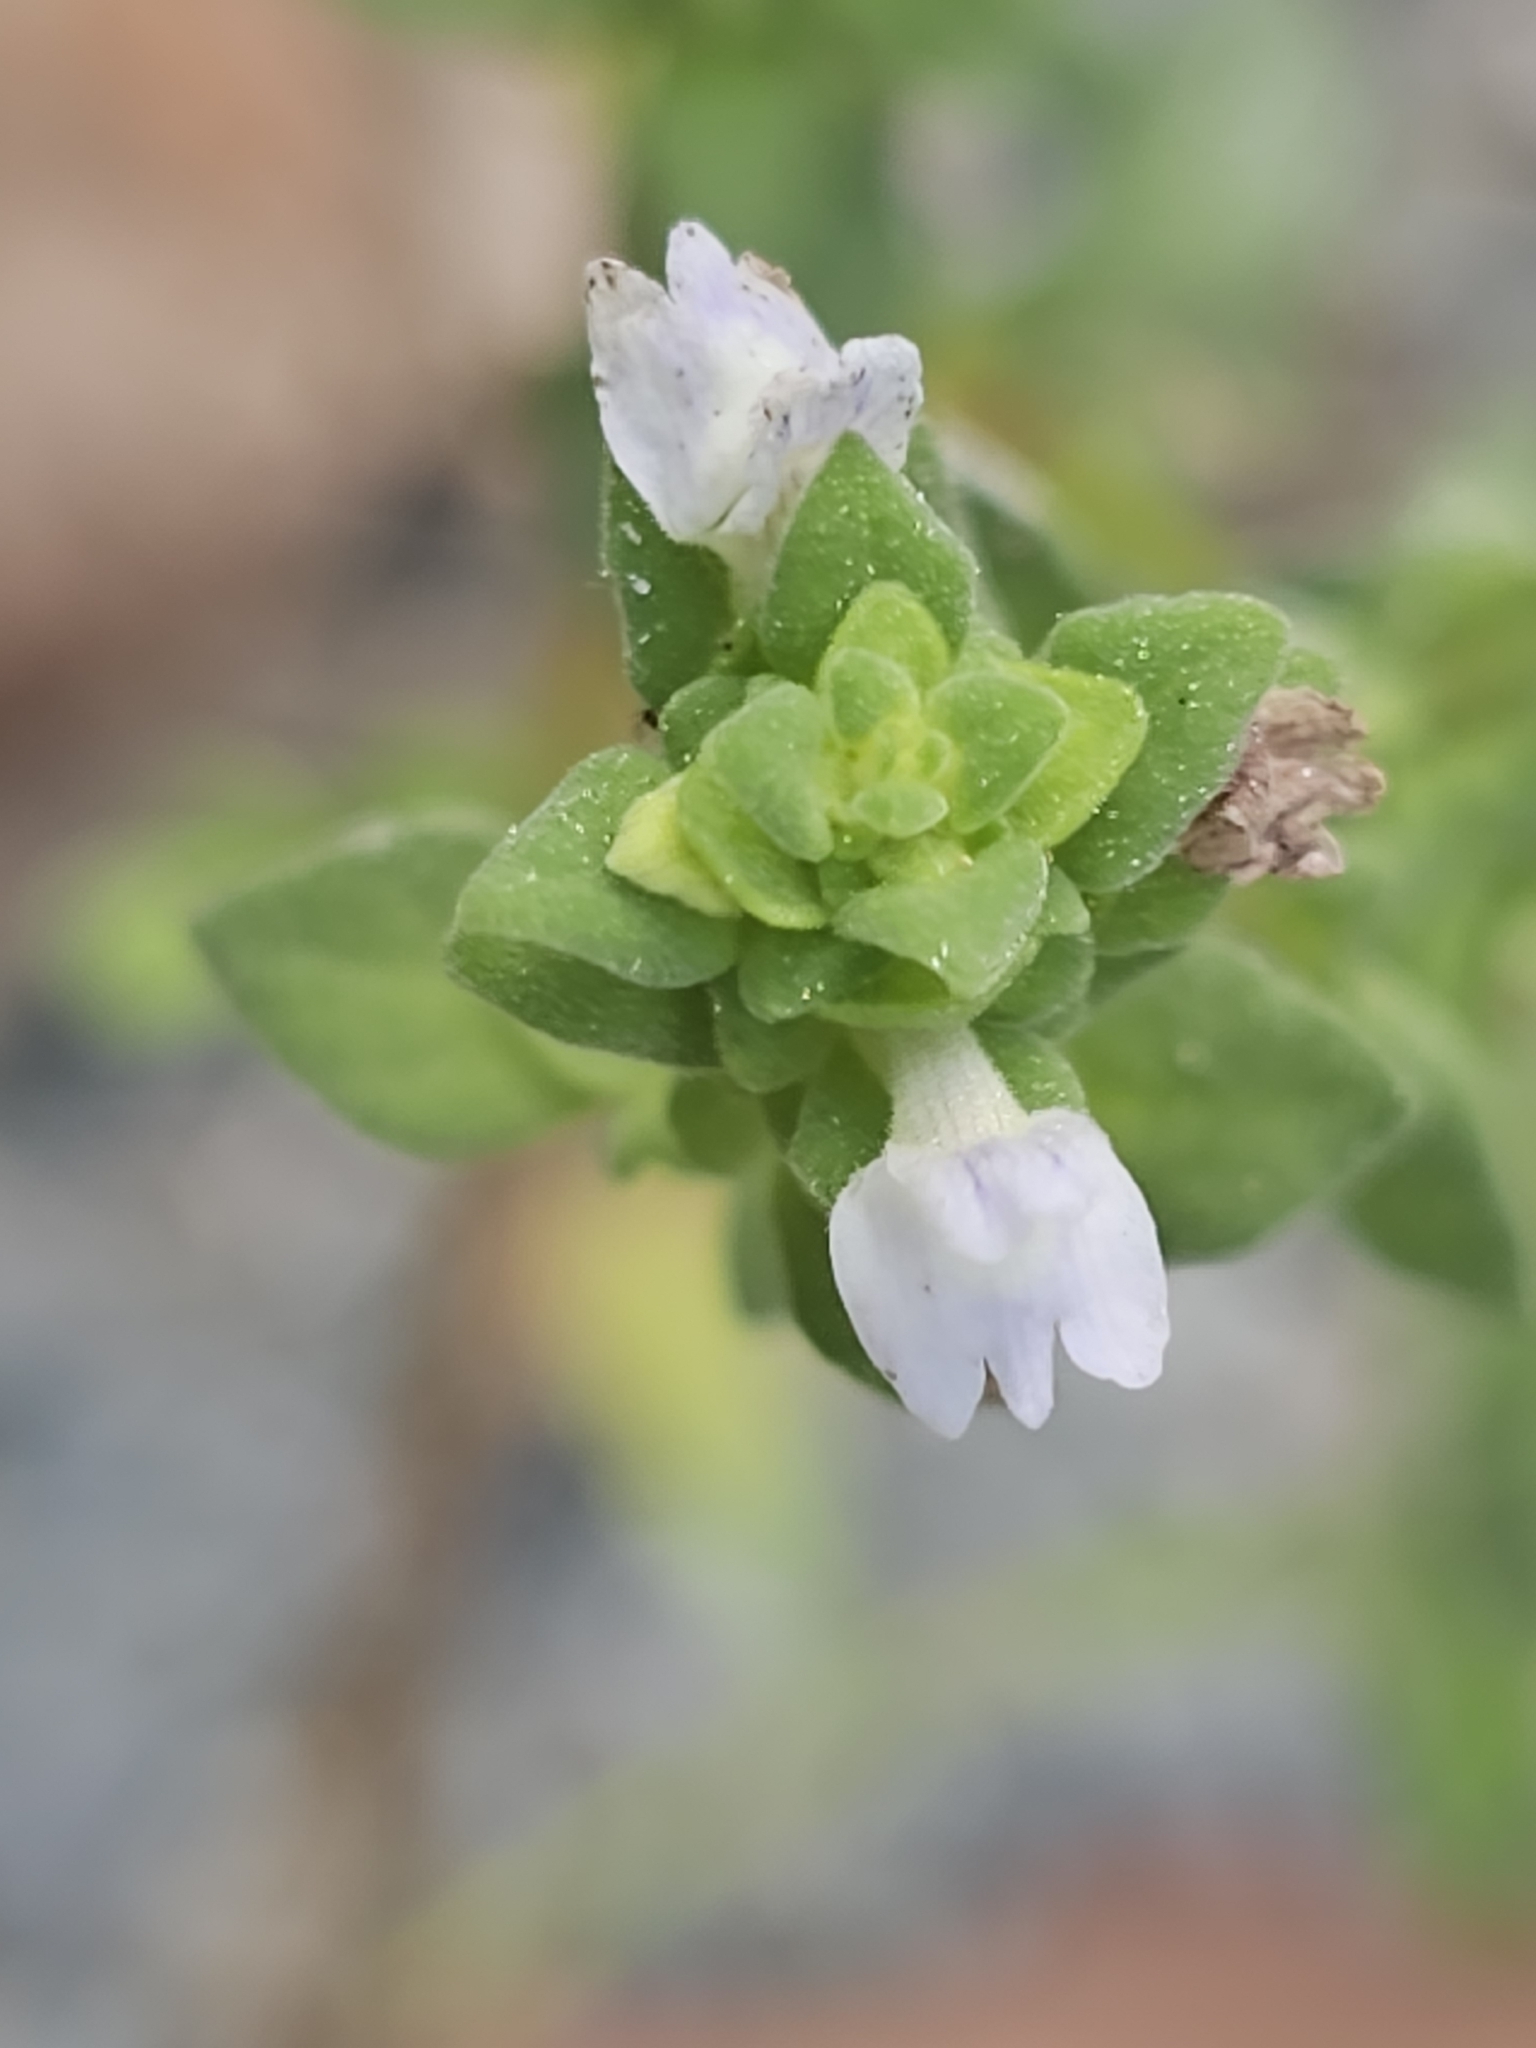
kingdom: Plantae
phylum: Tracheophyta
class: Magnoliopsida
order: Lamiales
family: Plantaginaceae
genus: Matourea
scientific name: Matourea pratensis
